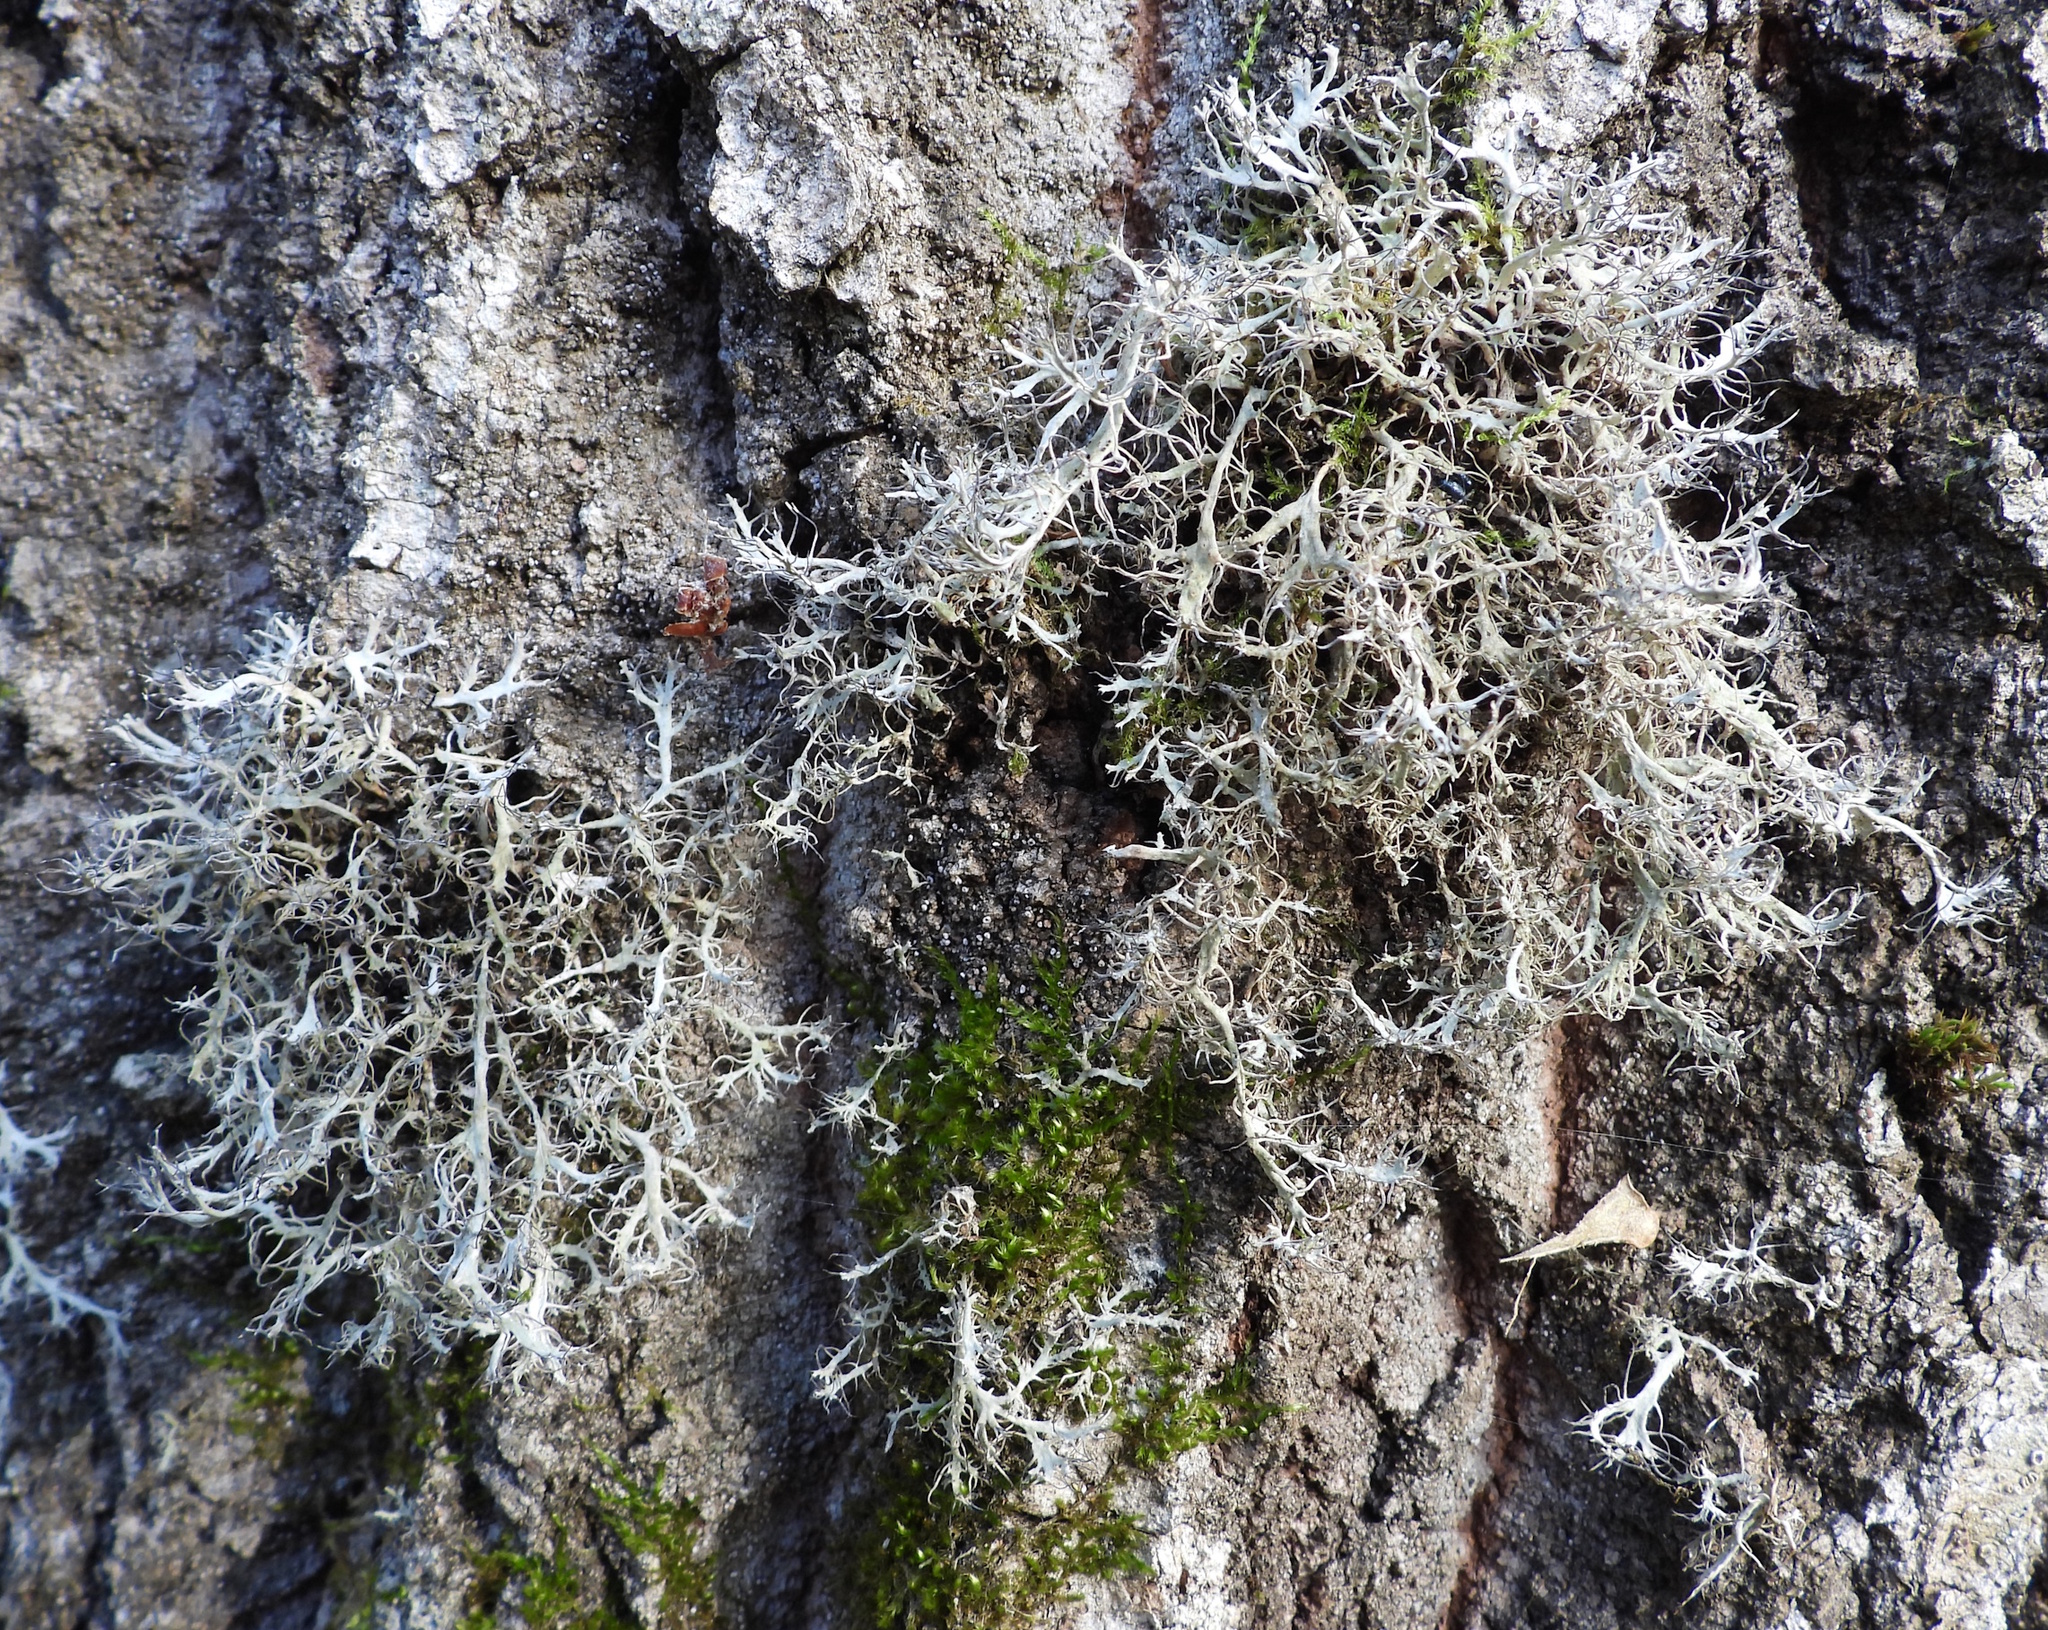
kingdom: Fungi
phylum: Ascomycota
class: Lecanoromycetes
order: Caliciales
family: Physciaceae
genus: Anaptychia
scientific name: Anaptychia ciliaris
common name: Great ciliated lichen
